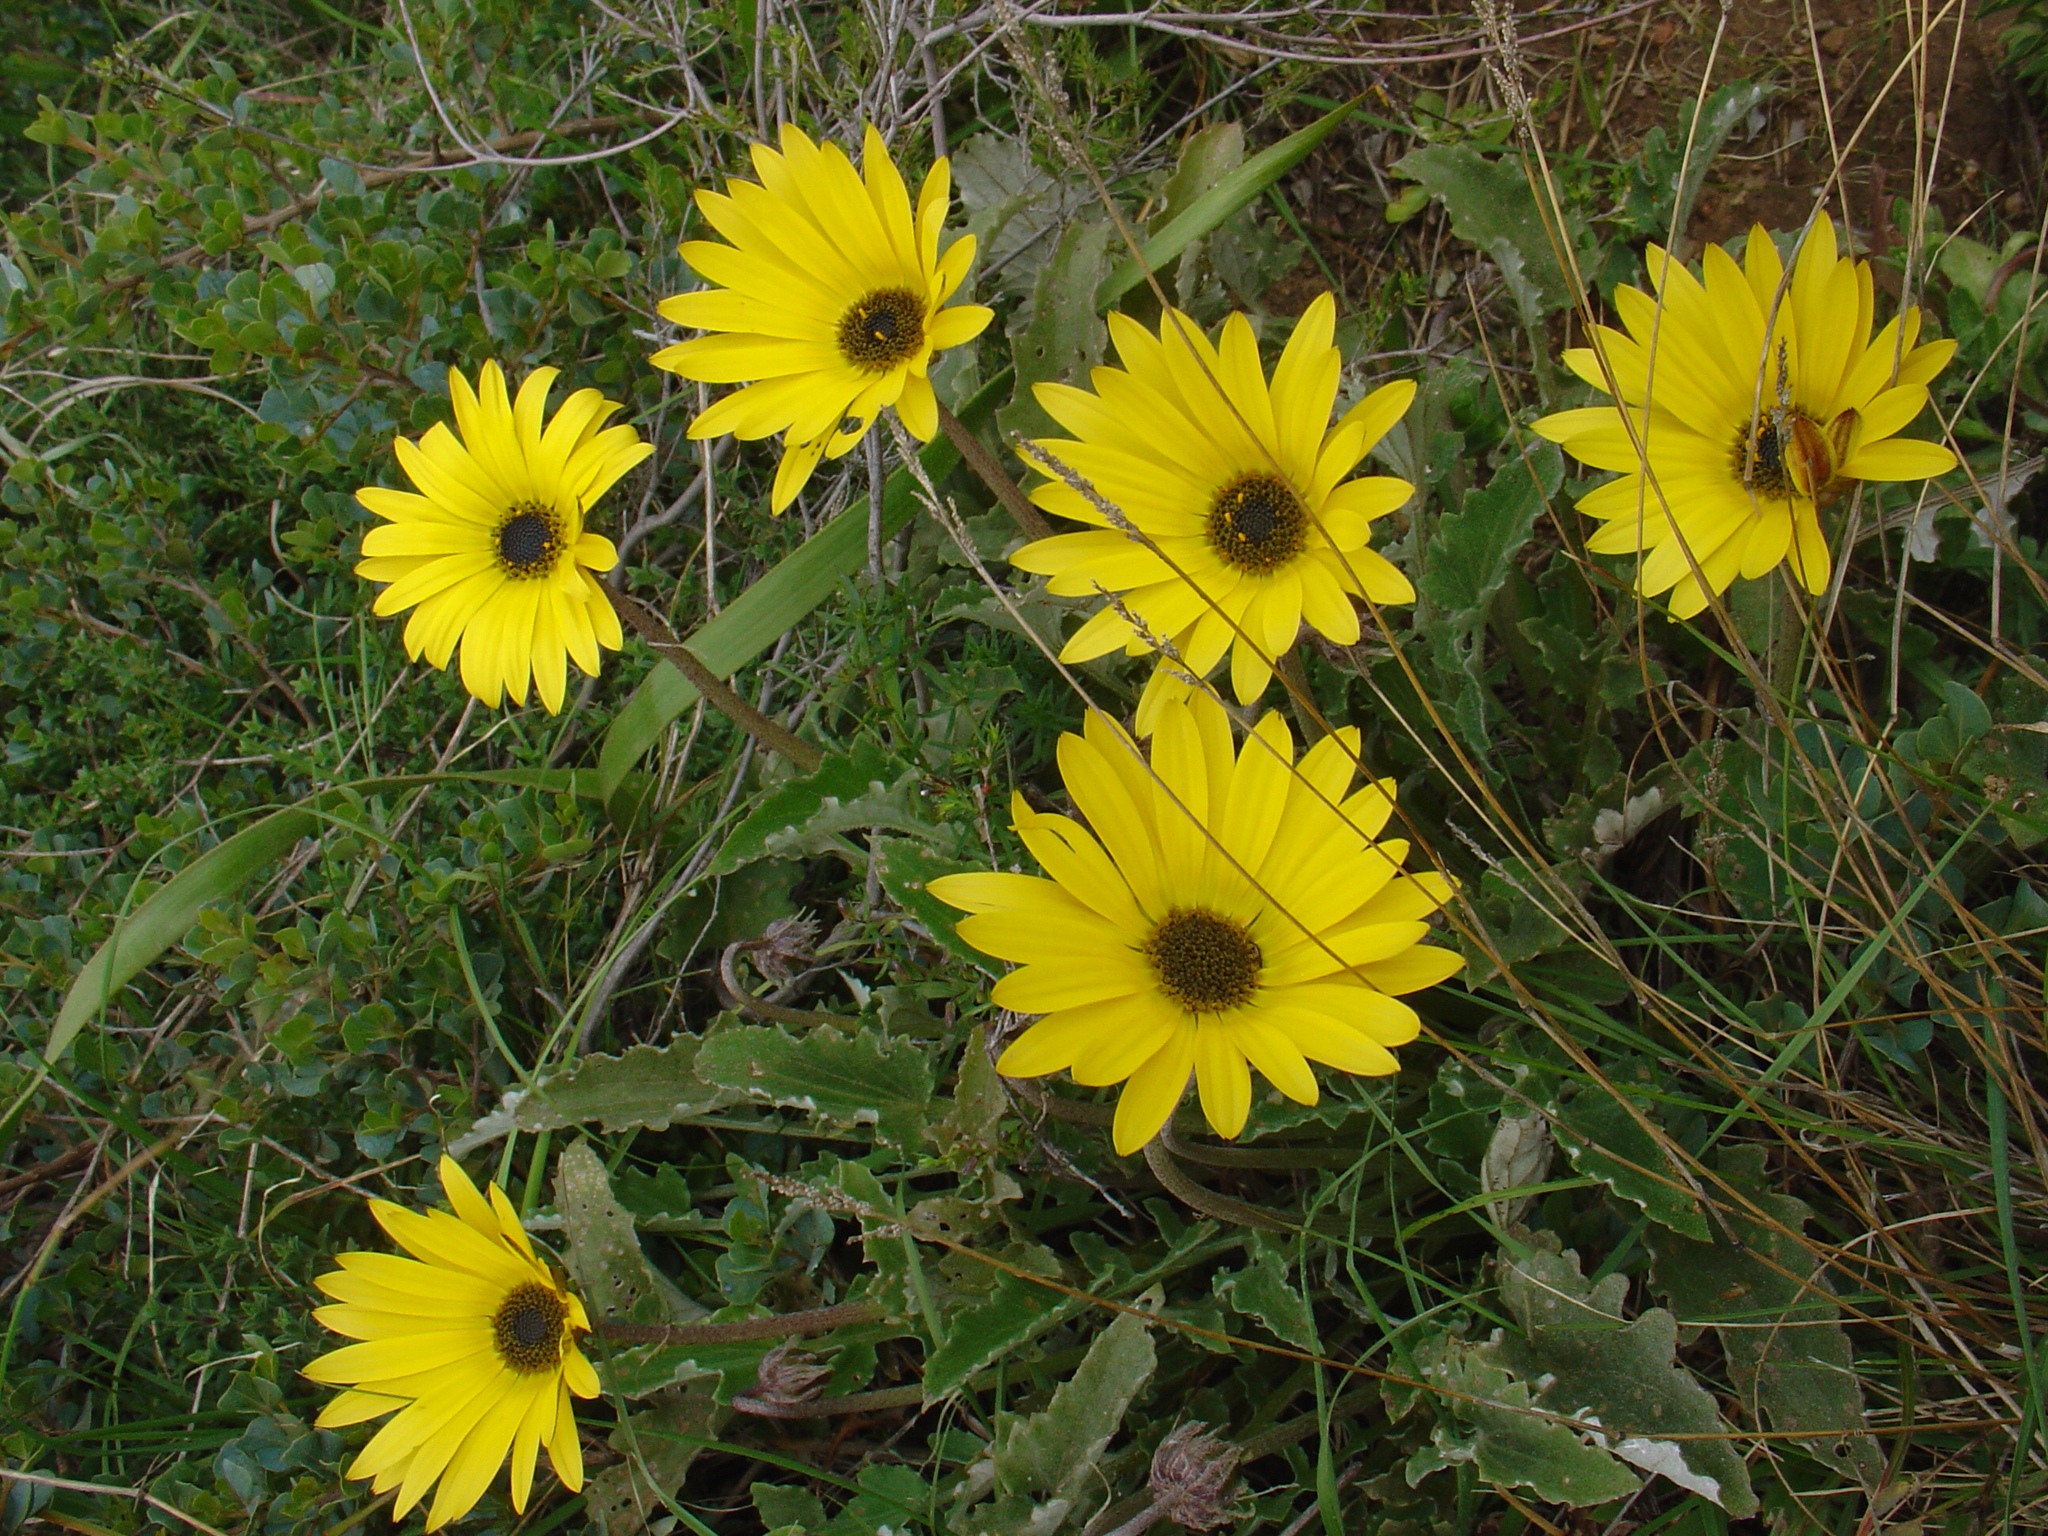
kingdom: Plantae
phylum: Tracheophyta
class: Magnoliopsida
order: Asterales
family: Asteraceae
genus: Arctotheca
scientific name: Arctotheca calendula
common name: Capeweed
